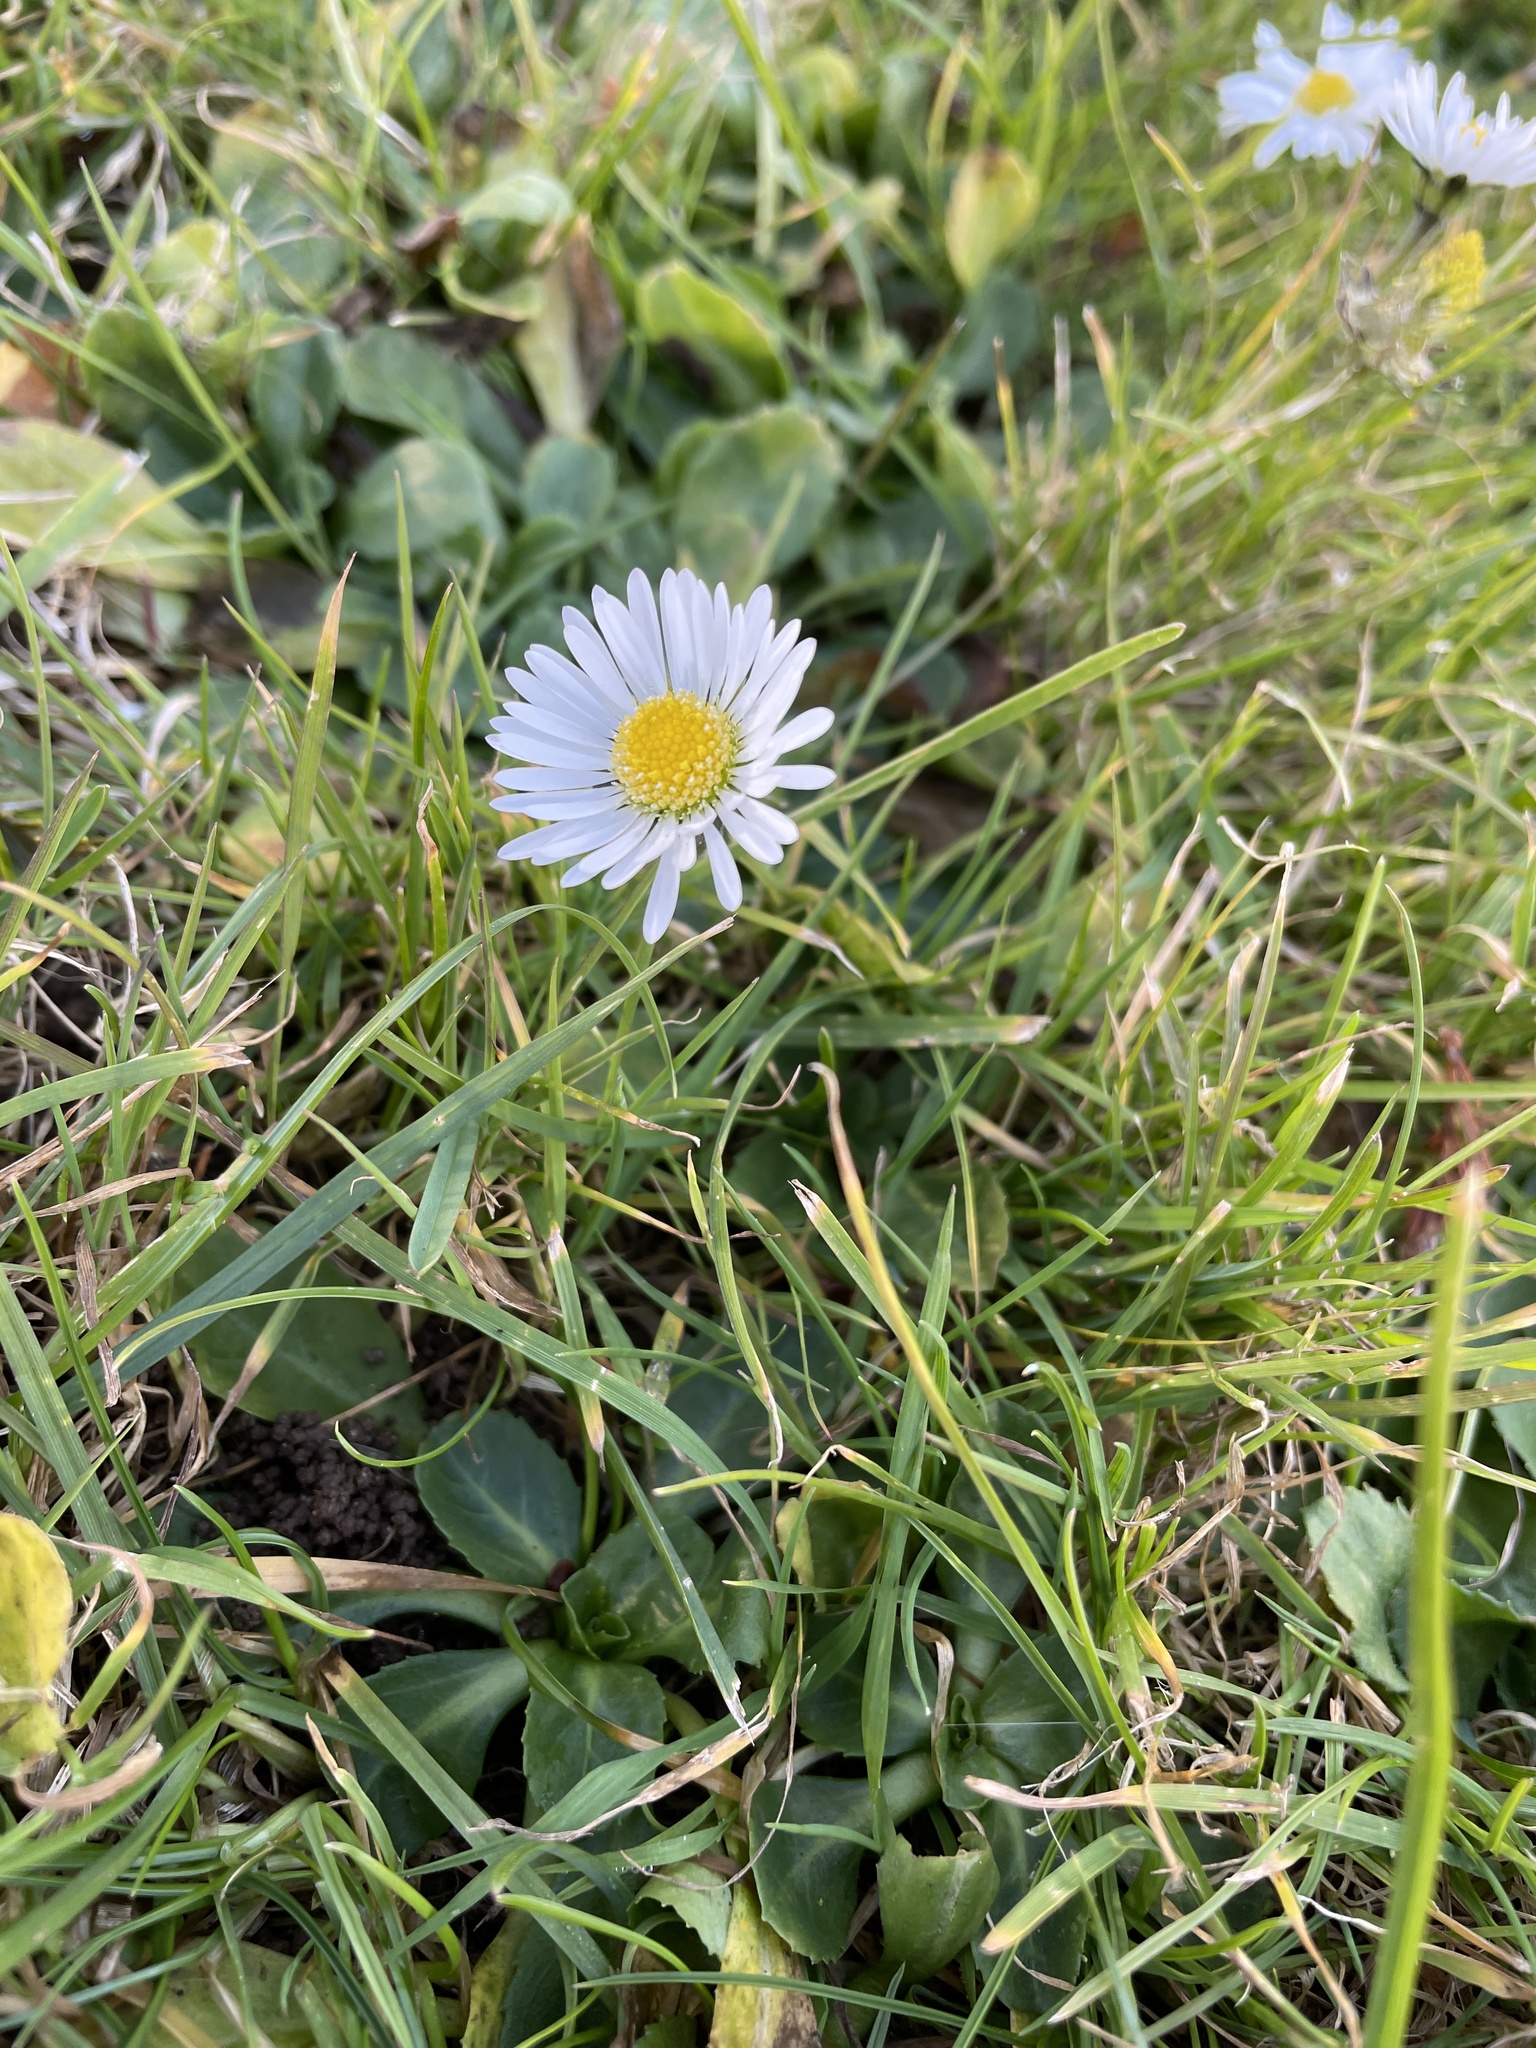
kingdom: Plantae
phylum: Tracheophyta
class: Magnoliopsida
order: Asterales
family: Asteraceae
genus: Bellis
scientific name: Bellis perennis
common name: Lawndaisy
